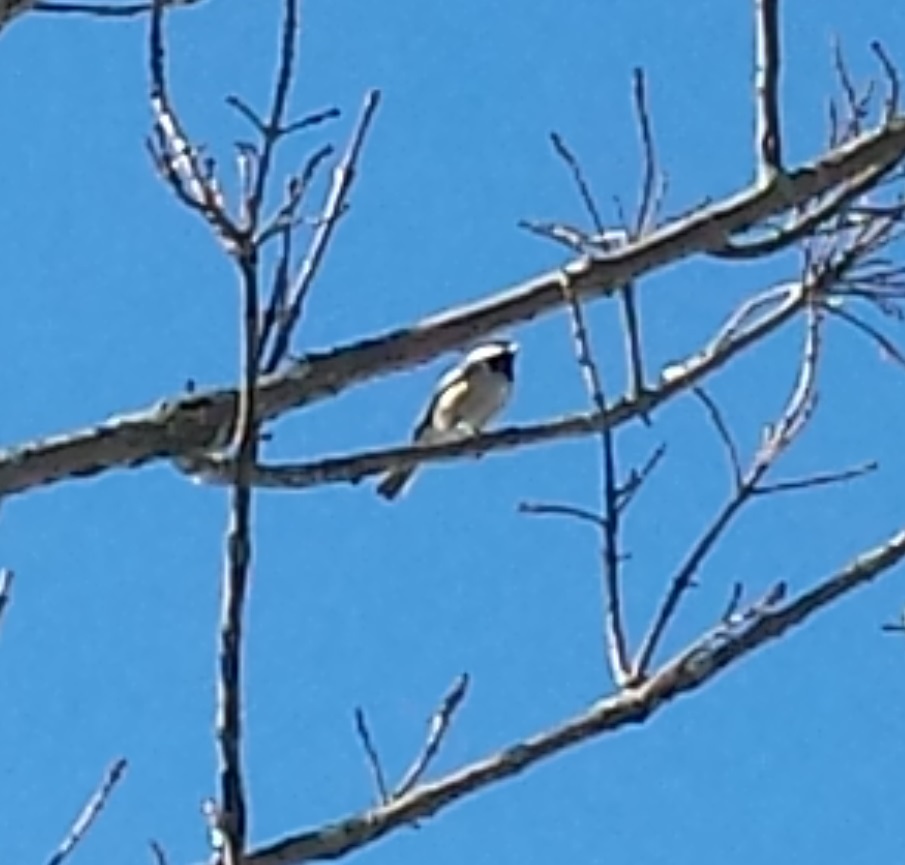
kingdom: Animalia
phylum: Chordata
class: Aves
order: Passeriformes
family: Paridae
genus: Poecile
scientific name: Poecile atricapillus
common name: Black-capped chickadee
